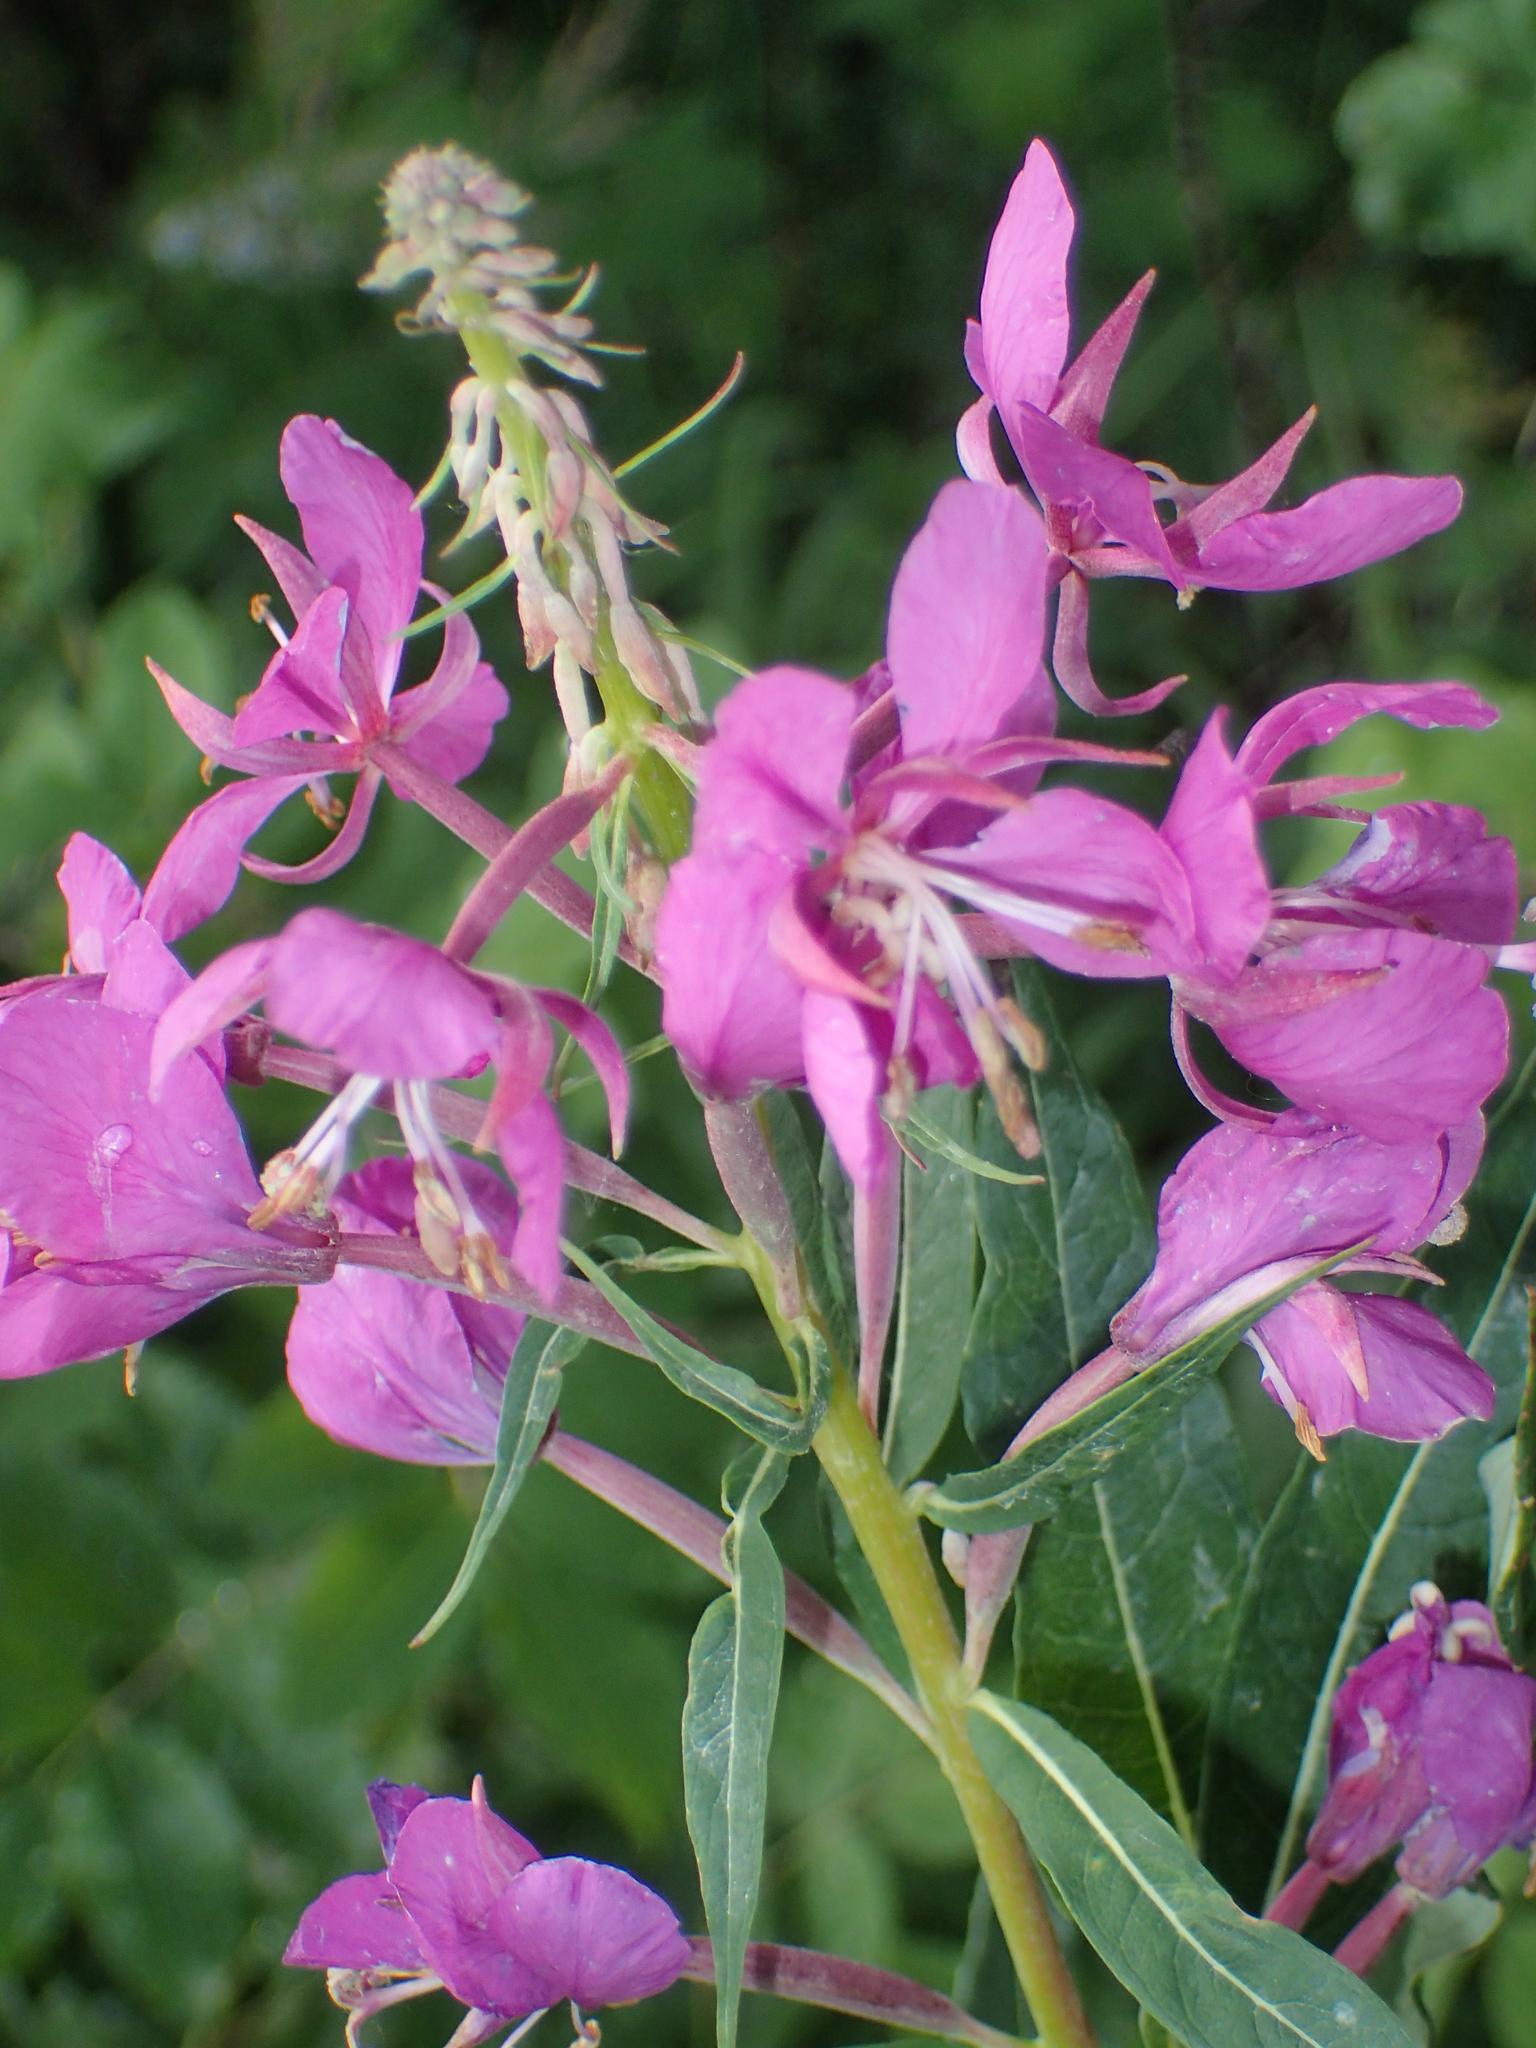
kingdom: Plantae
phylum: Tracheophyta
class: Magnoliopsida
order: Myrtales
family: Onagraceae
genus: Chamaenerion
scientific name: Chamaenerion angustifolium
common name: Fireweed
